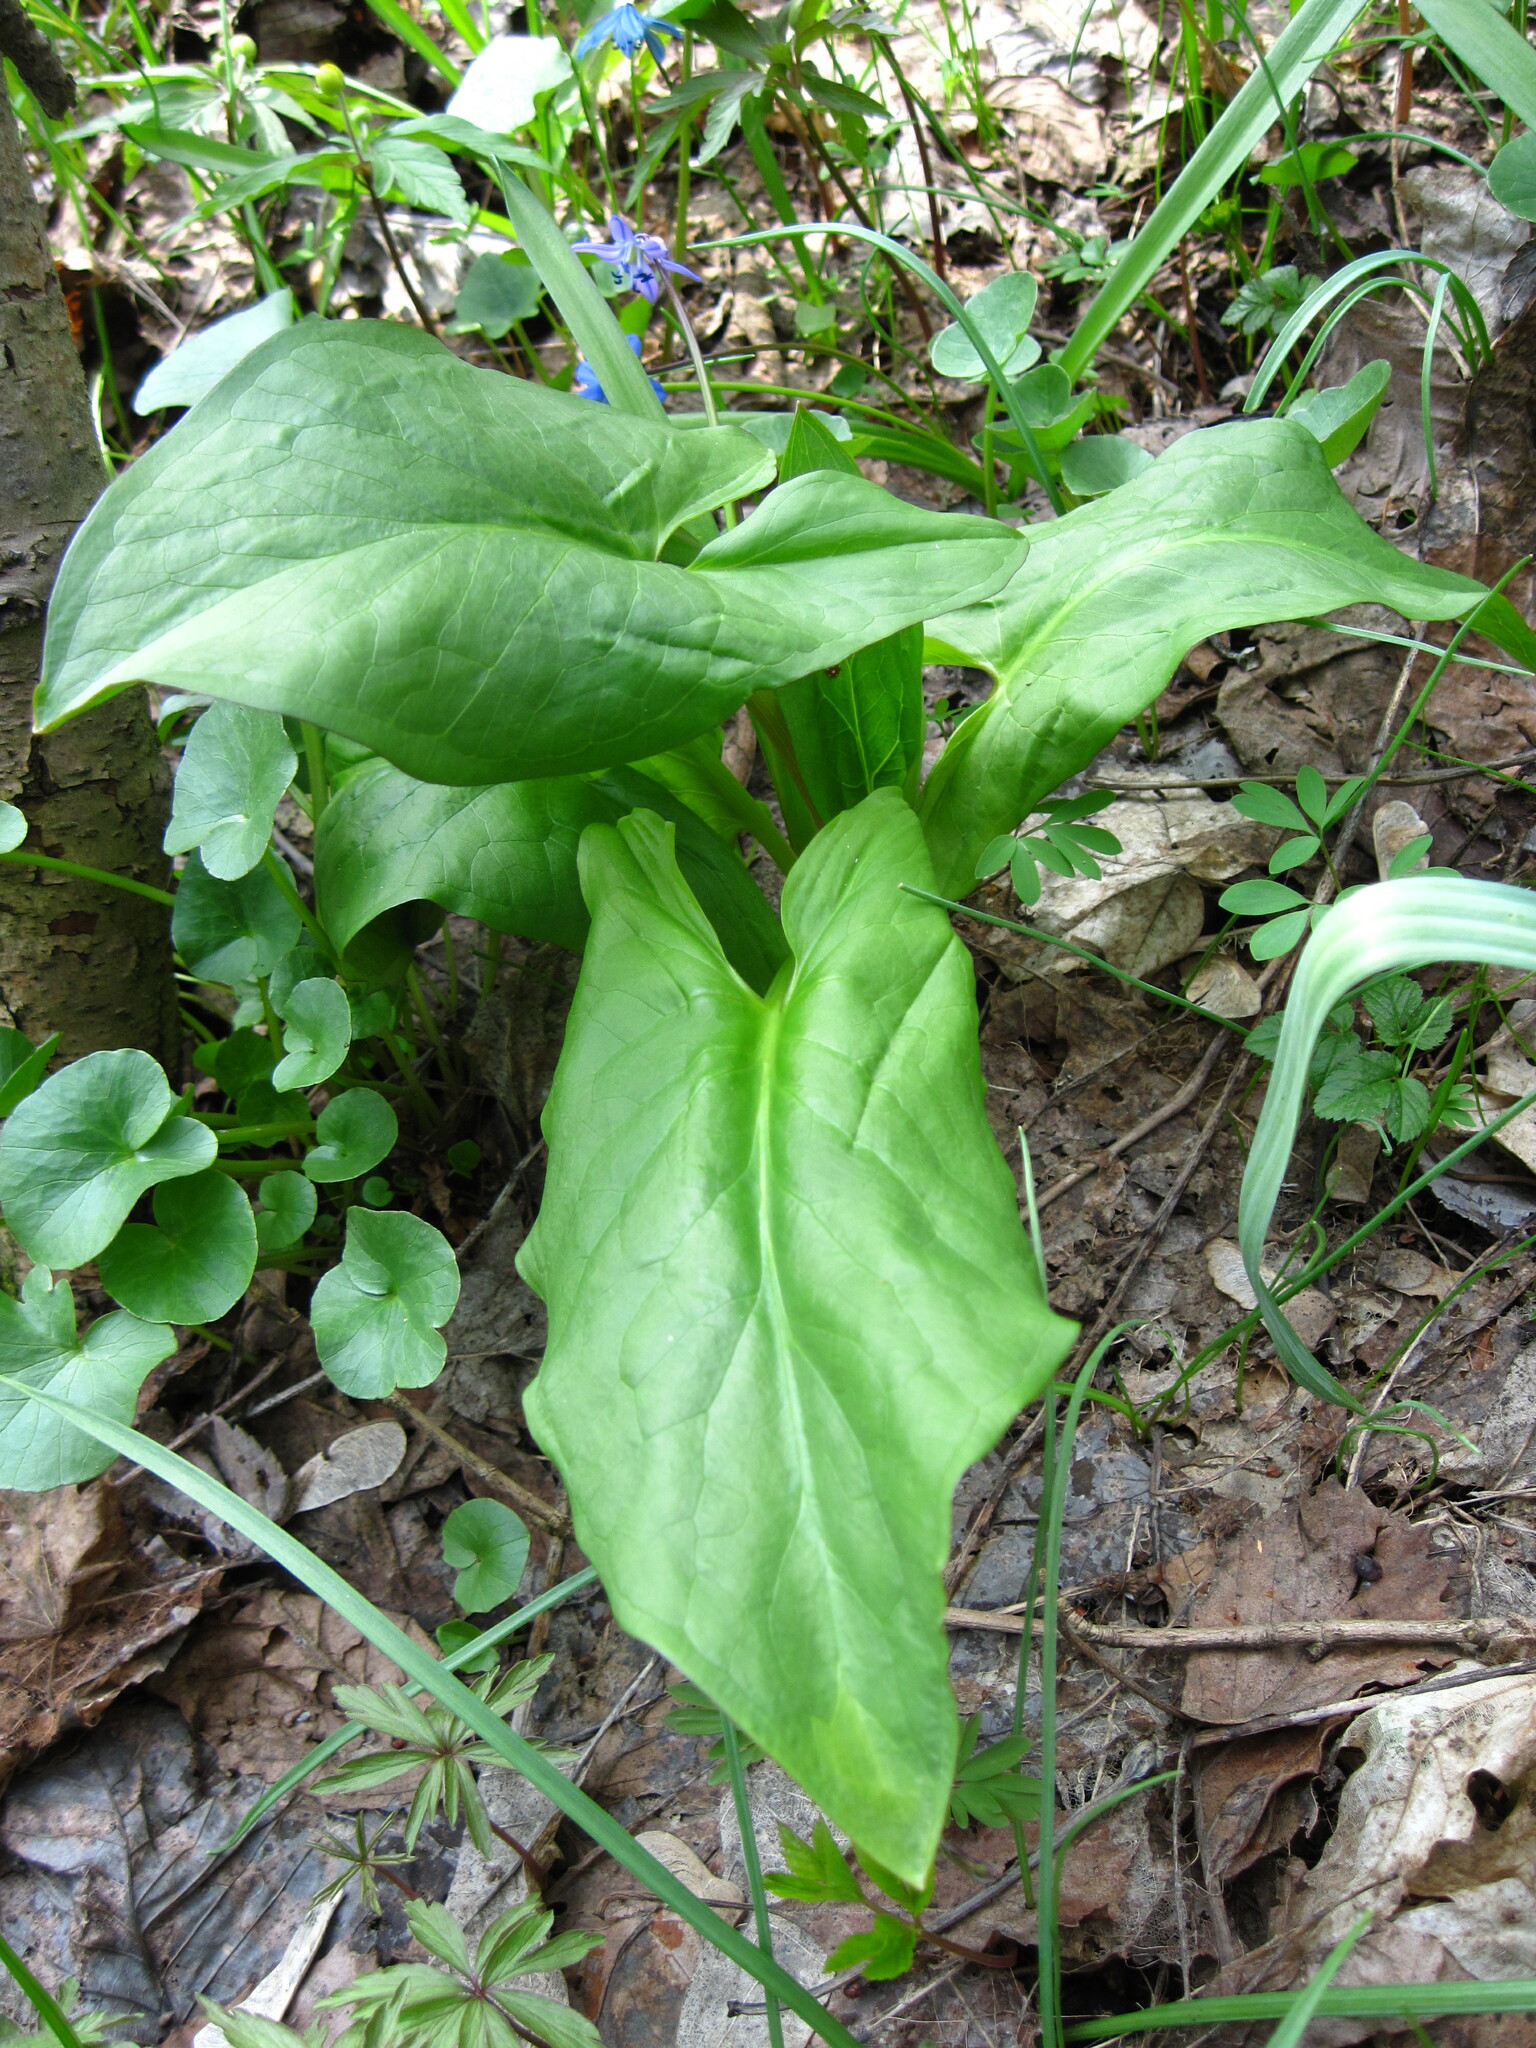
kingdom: Plantae
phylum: Tracheophyta
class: Liliopsida
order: Alismatales
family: Araceae
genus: Arum
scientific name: Arum orientale
